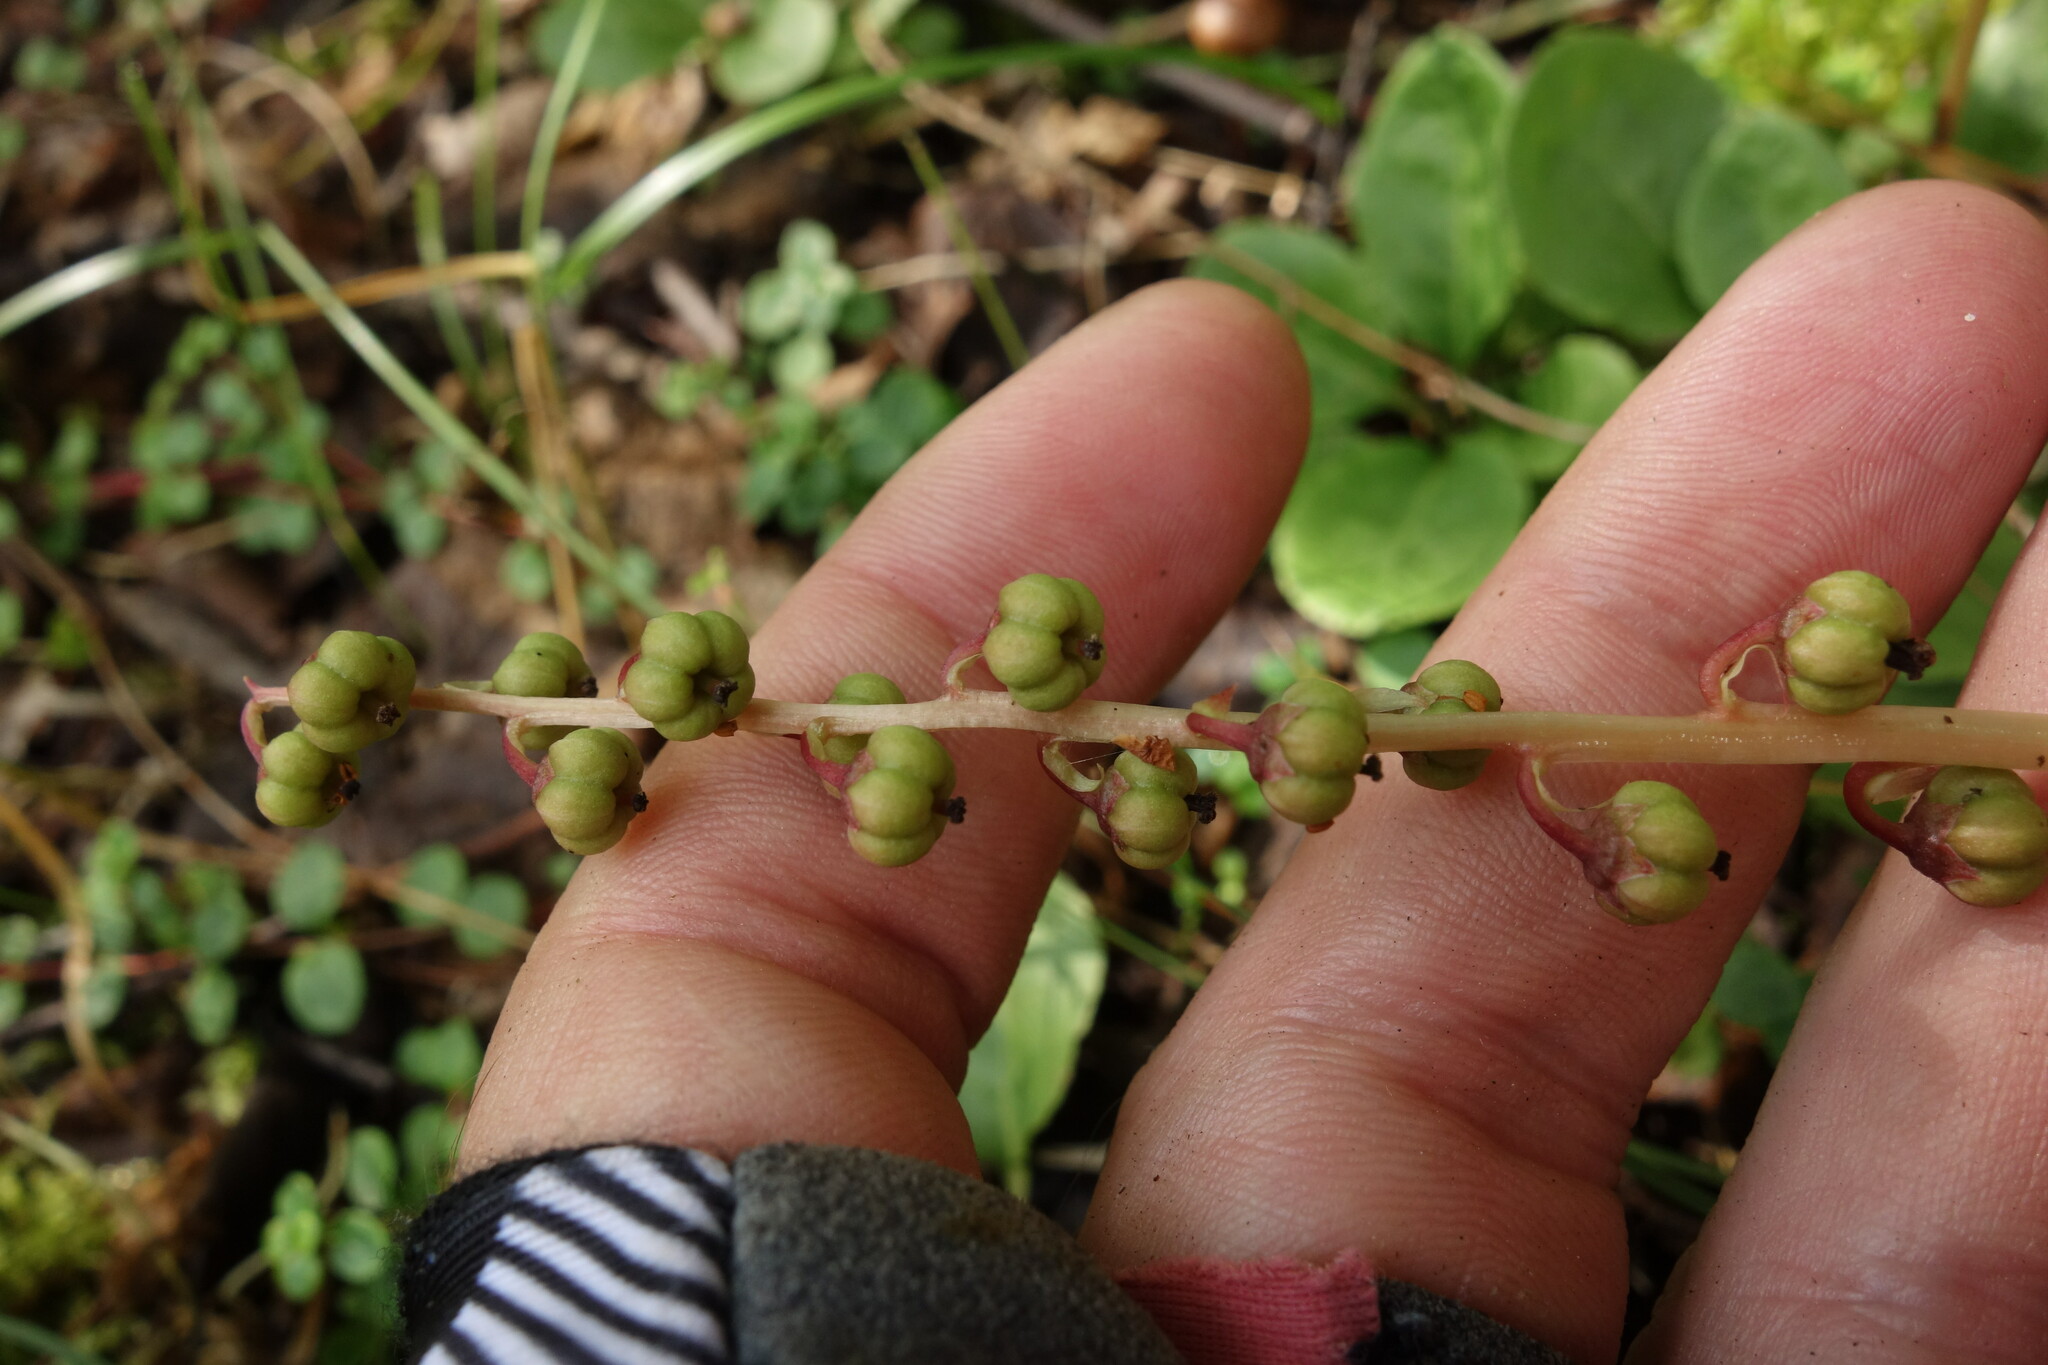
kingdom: Plantae
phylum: Tracheophyta
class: Magnoliopsida
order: Ericales
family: Ericaceae
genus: Pyrola
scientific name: Pyrola minor
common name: Common wintergreen
